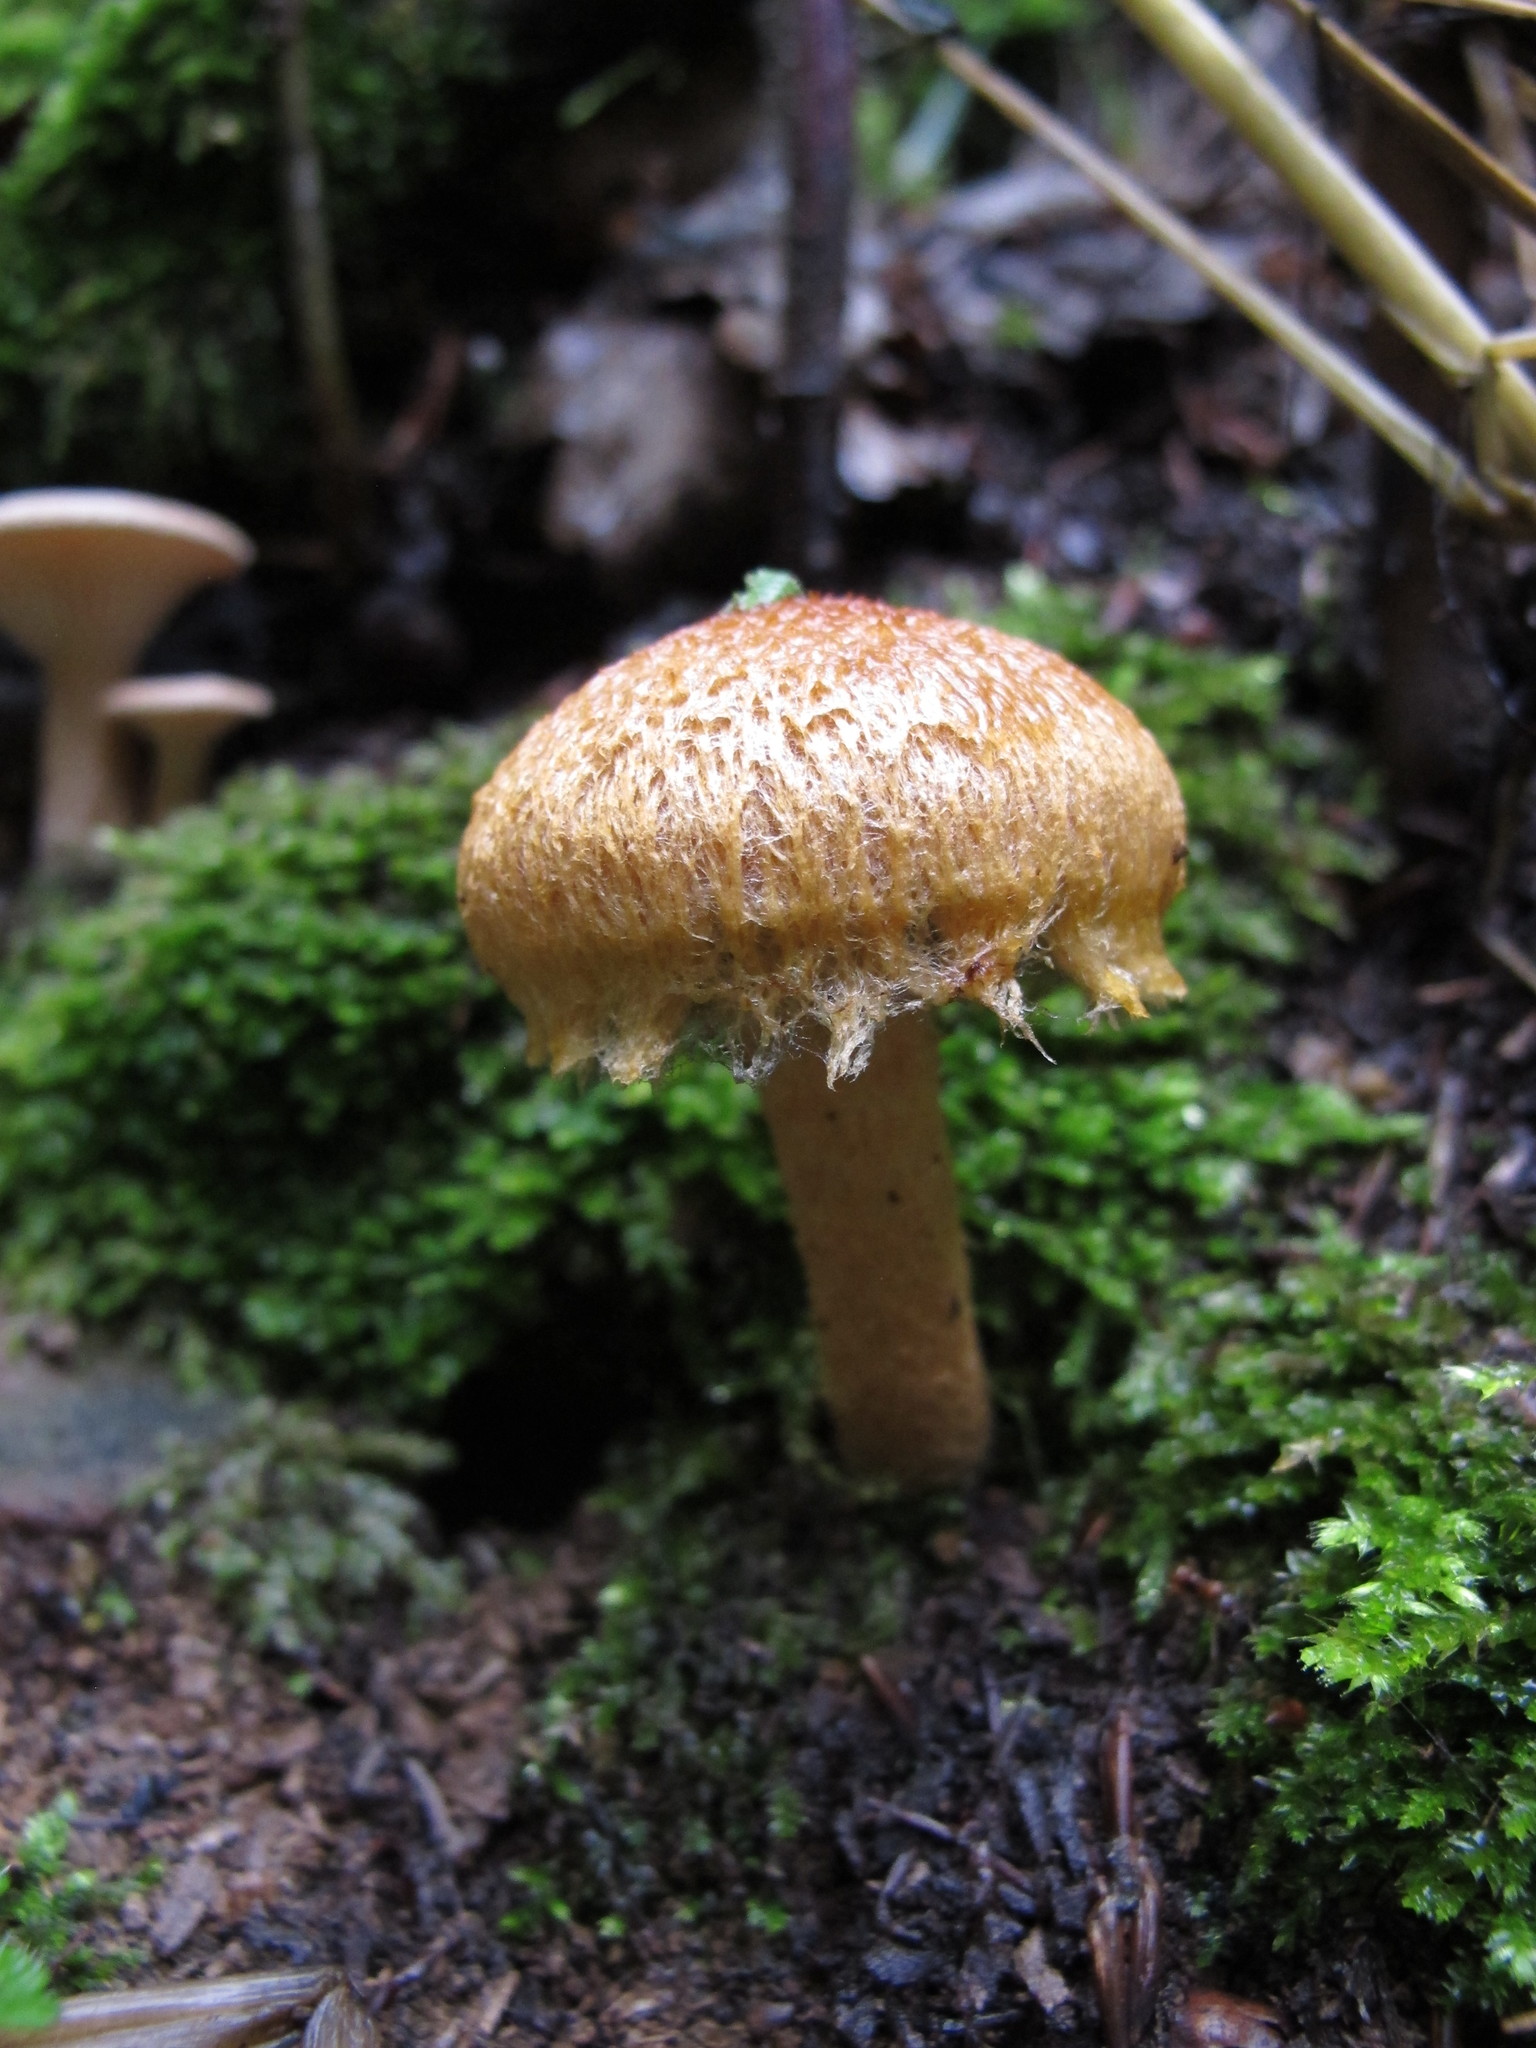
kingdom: Fungi
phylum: Basidiomycota
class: Agaricomycetes
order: Agaricales
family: Psathyrellaceae
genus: Lacrymaria
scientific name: Lacrymaria lacrymabunda
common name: Weeping widow
